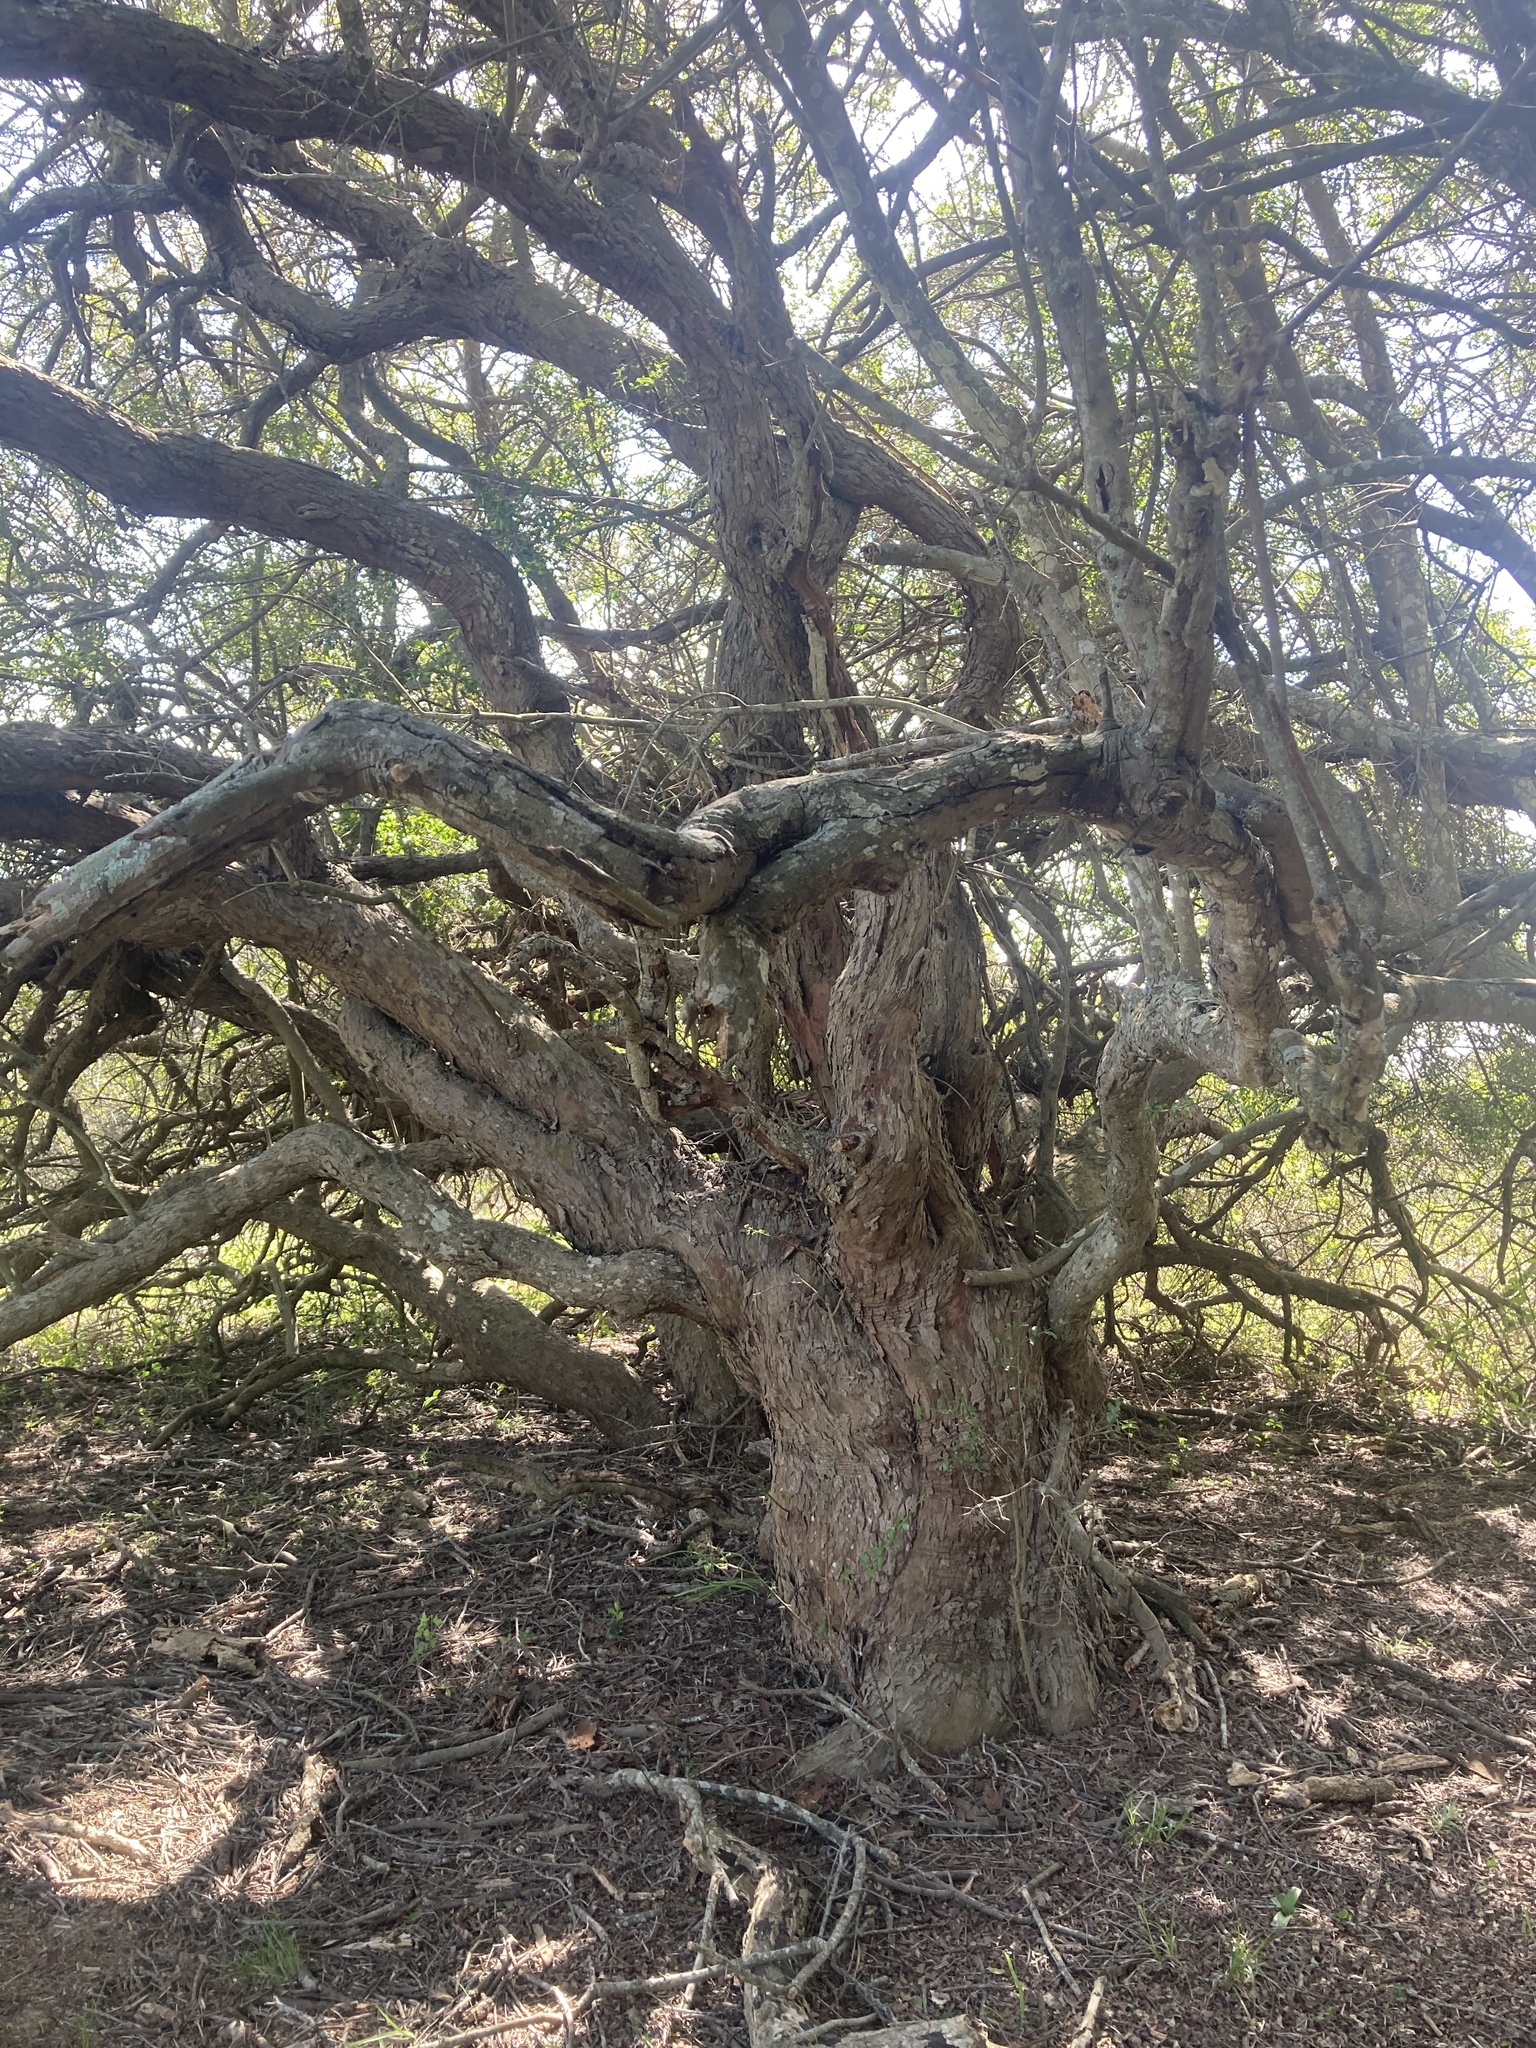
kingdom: Plantae
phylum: Tracheophyta
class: Magnoliopsida
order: Rosales
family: Rhamnaceae
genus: Scutia
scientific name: Scutia buxifolia
